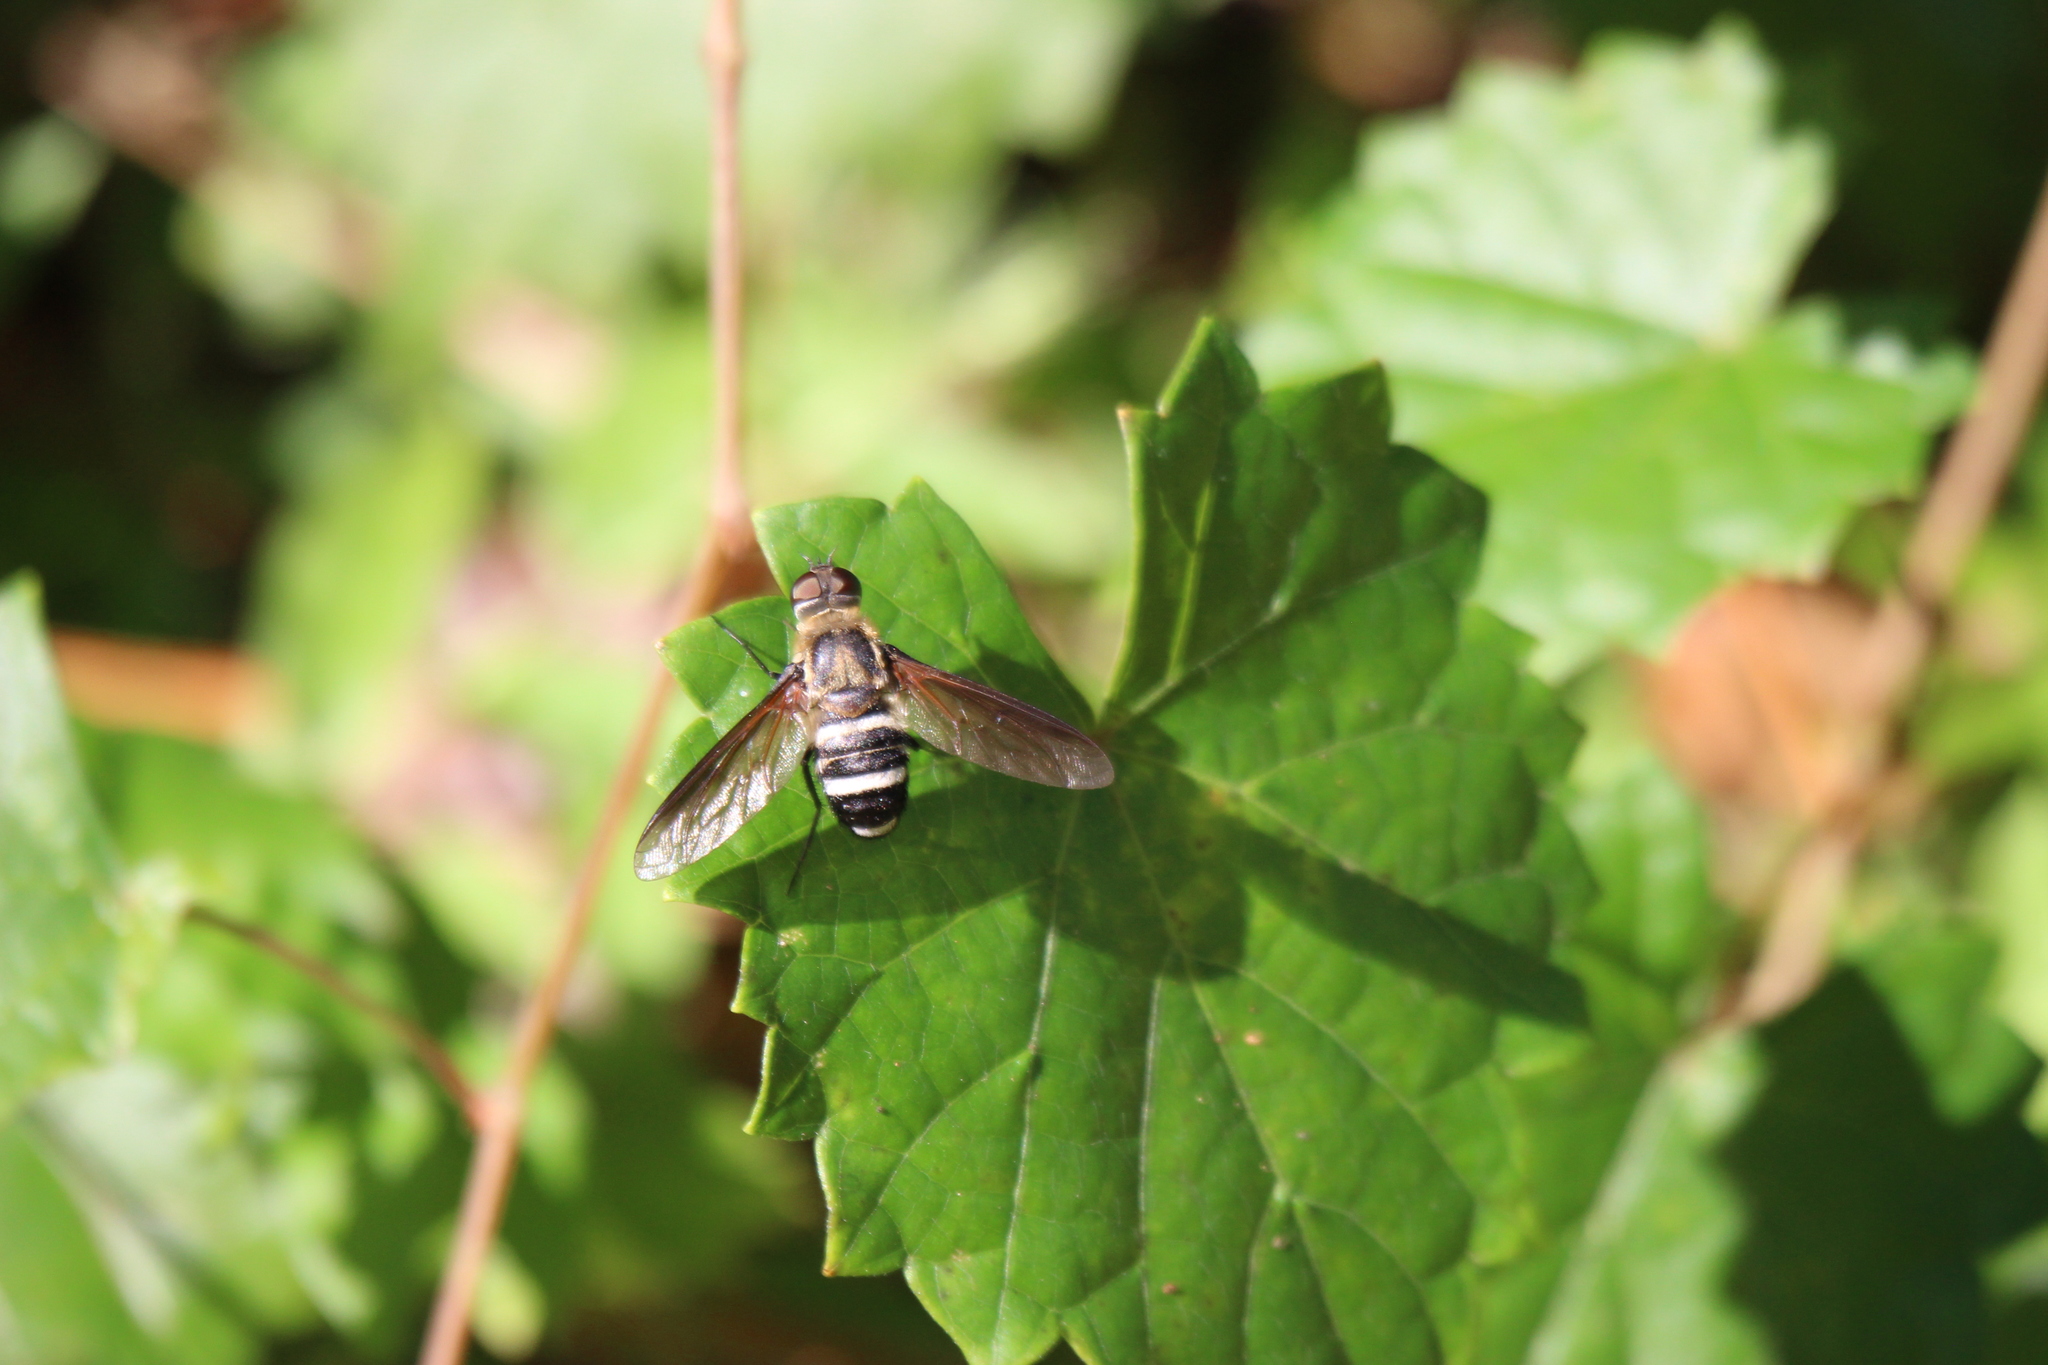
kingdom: Animalia
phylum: Arthropoda
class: Insecta
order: Diptera
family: Bombyliidae
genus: Exoprosopa
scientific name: Exoprosopa fasciata
